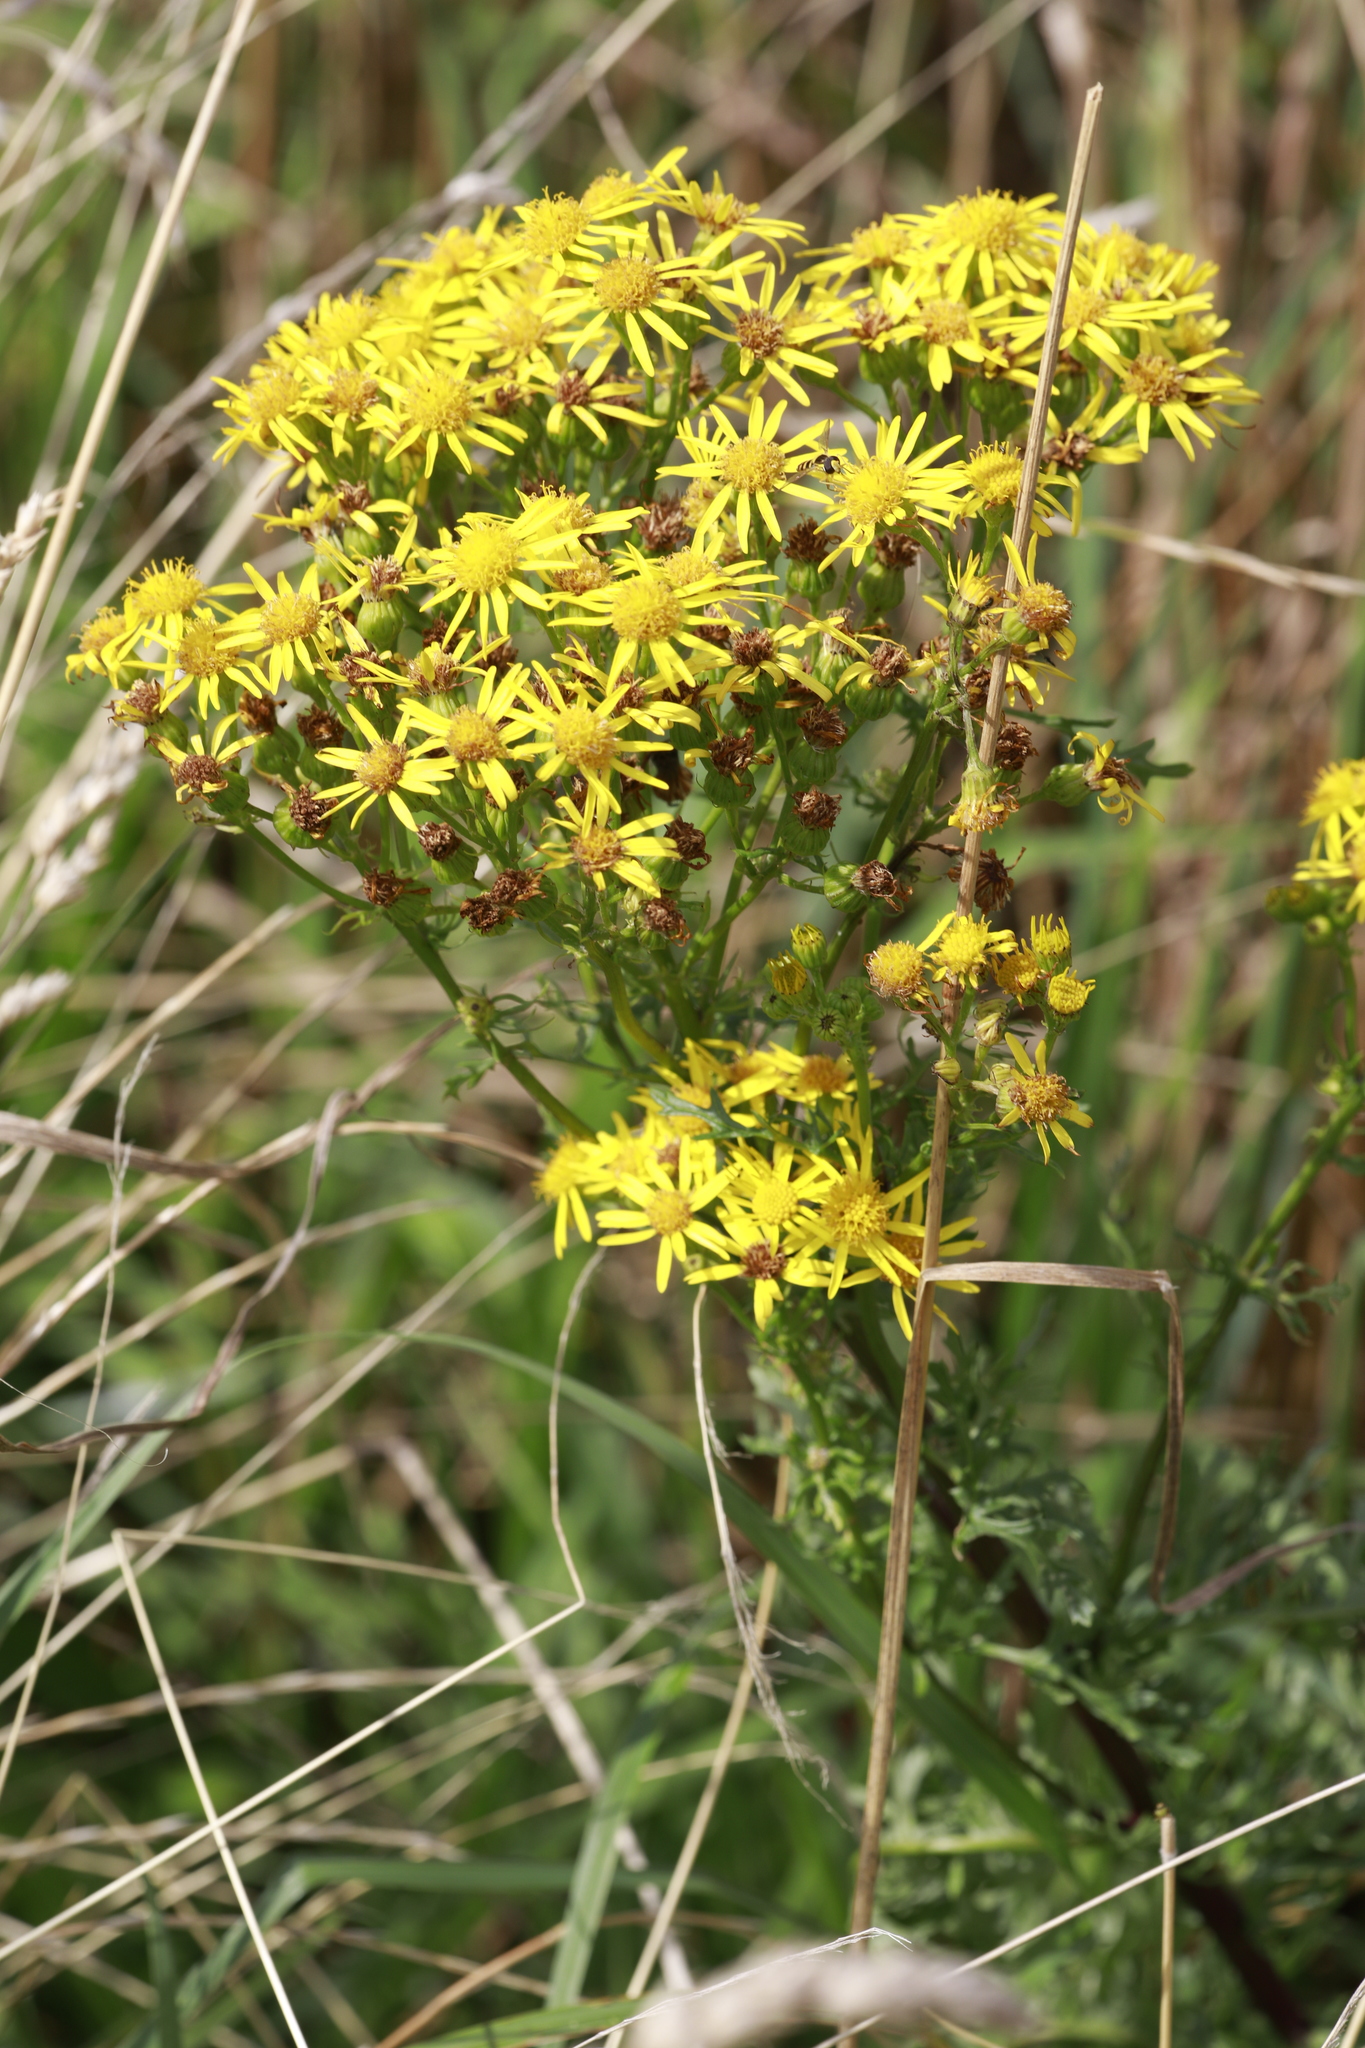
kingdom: Plantae
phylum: Tracheophyta
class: Magnoliopsida
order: Asterales
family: Asteraceae
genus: Jacobaea
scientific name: Jacobaea vulgaris
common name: Stinking willie
